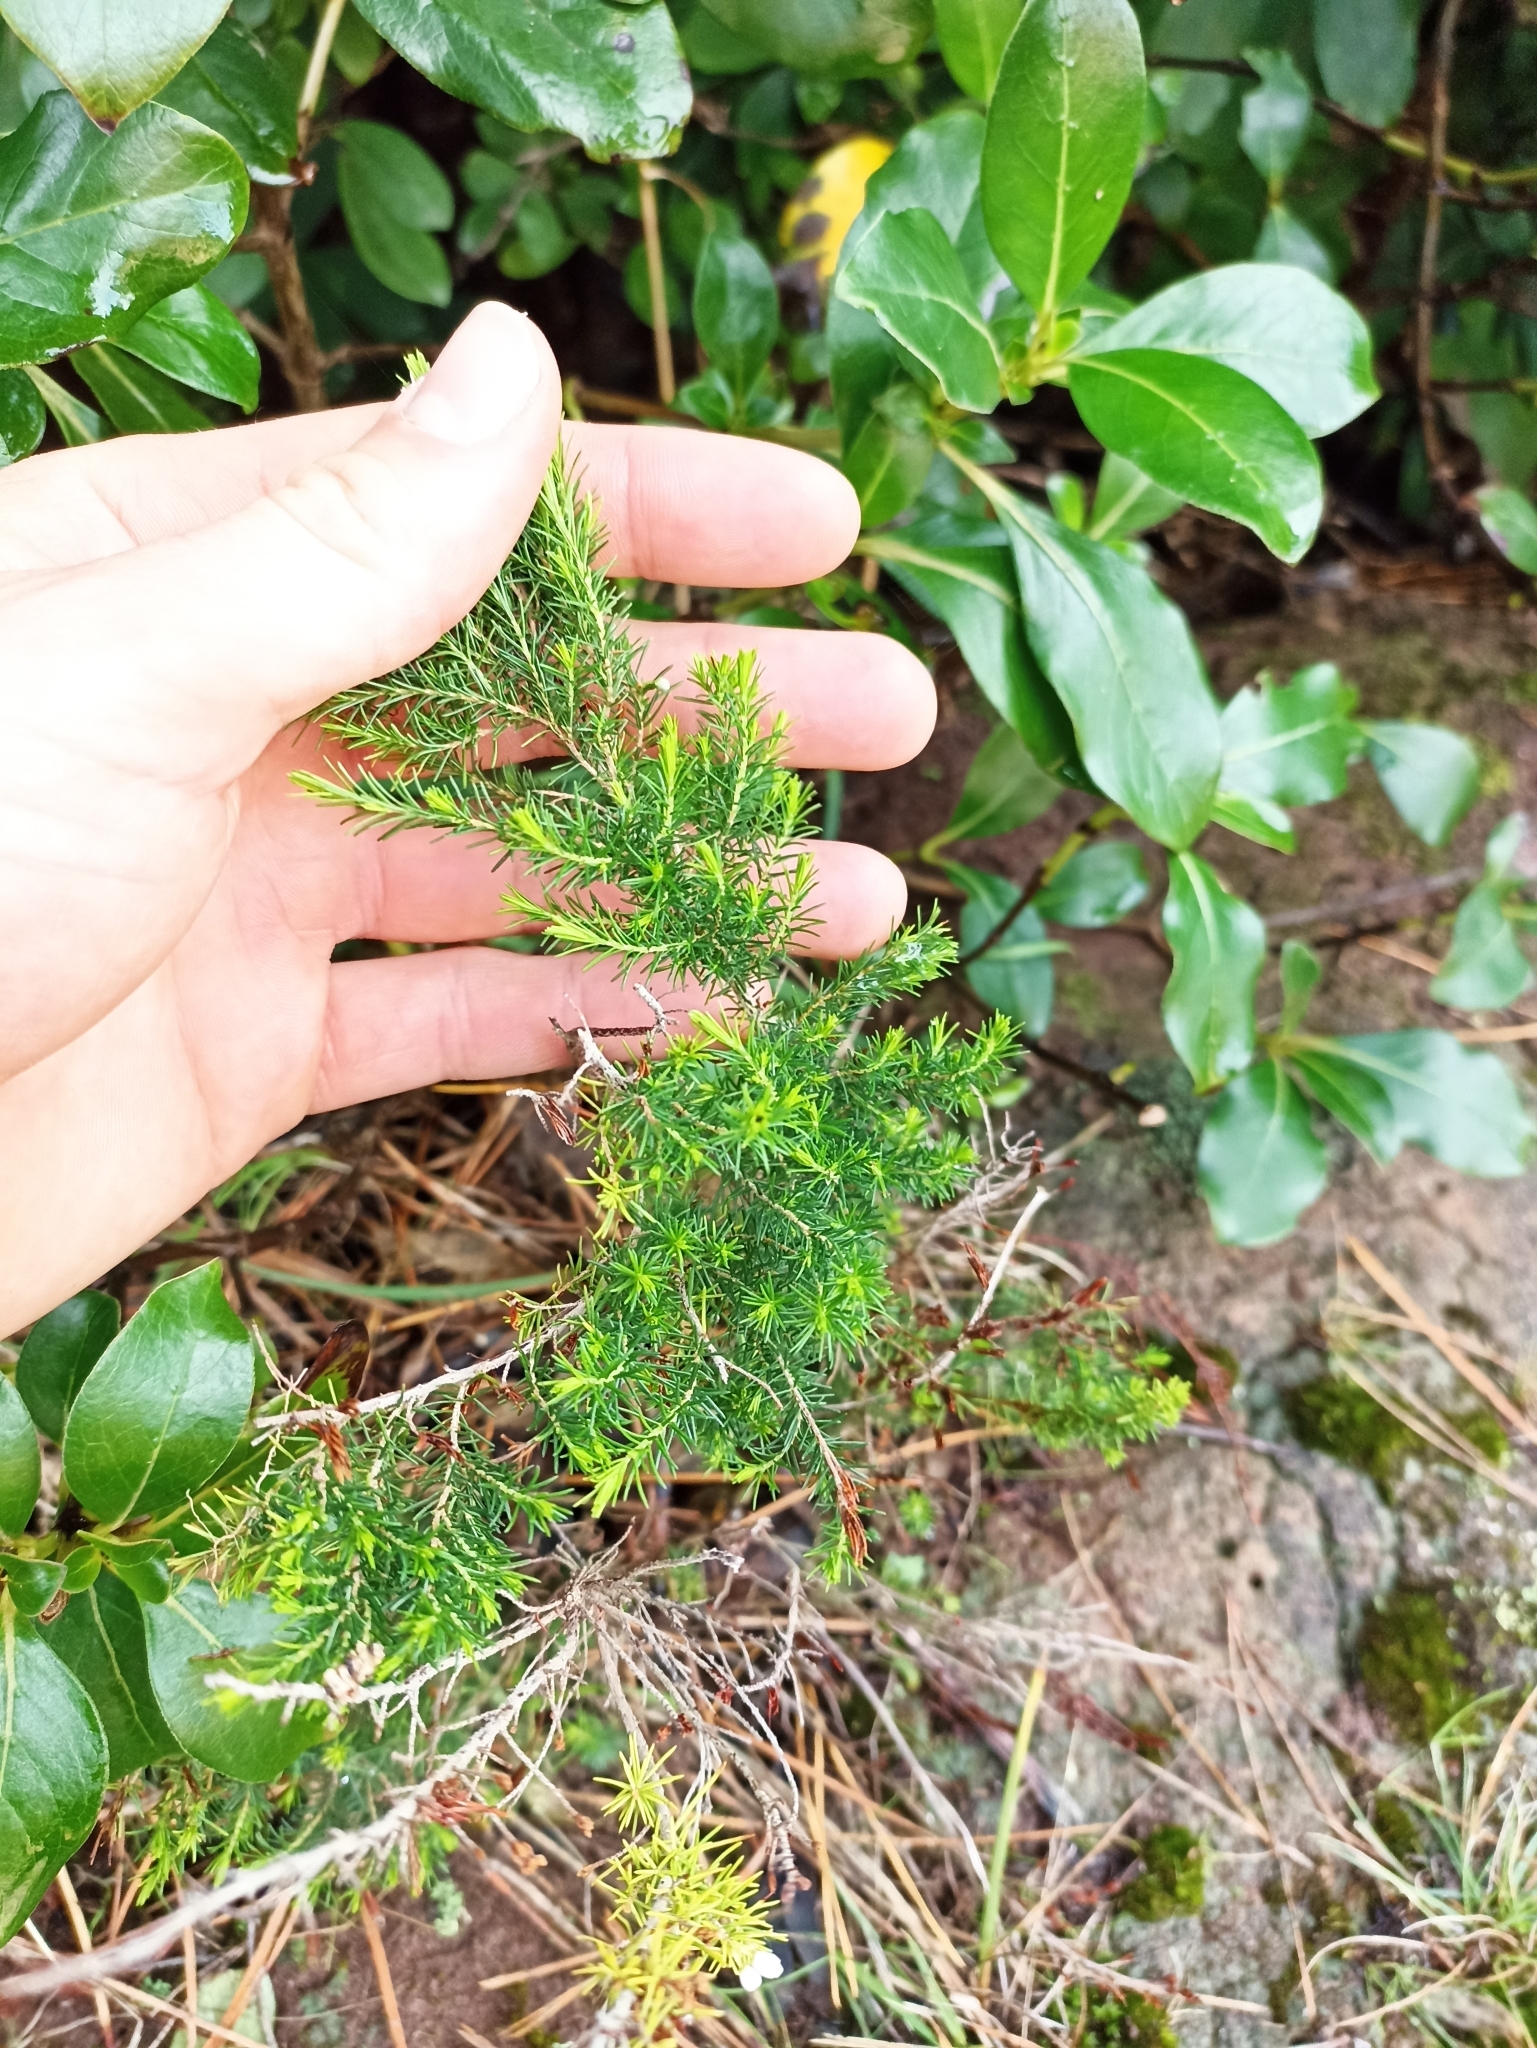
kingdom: Plantae
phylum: Tracheophyta
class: Magnoliopsida
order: Ericales
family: Ericaceae
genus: Erica
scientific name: Erica lusitanica
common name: Spanish heath
